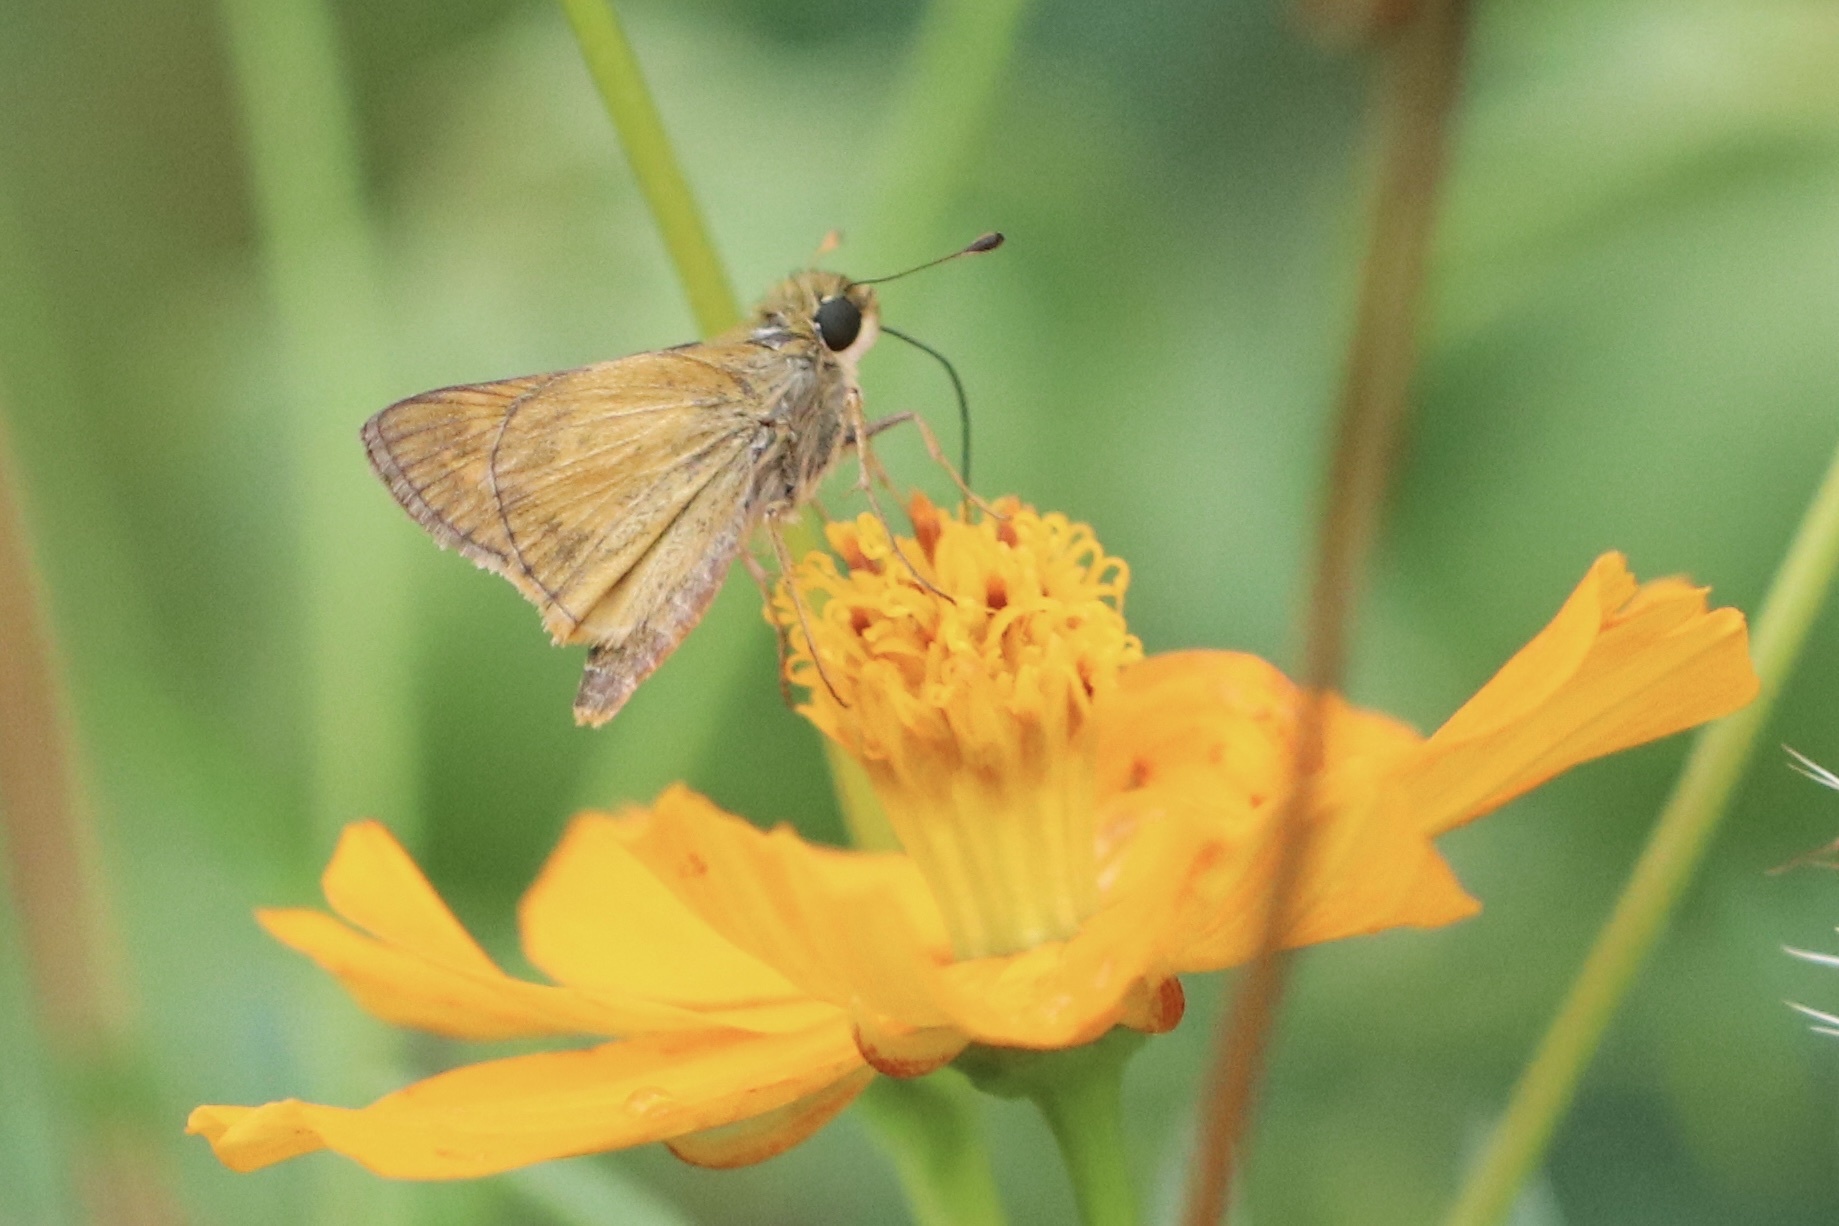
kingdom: Animalia
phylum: Arthropoda
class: Insecta
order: Lepidoptera
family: Hesperiidae
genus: Atalopedes
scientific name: Atalopedes
